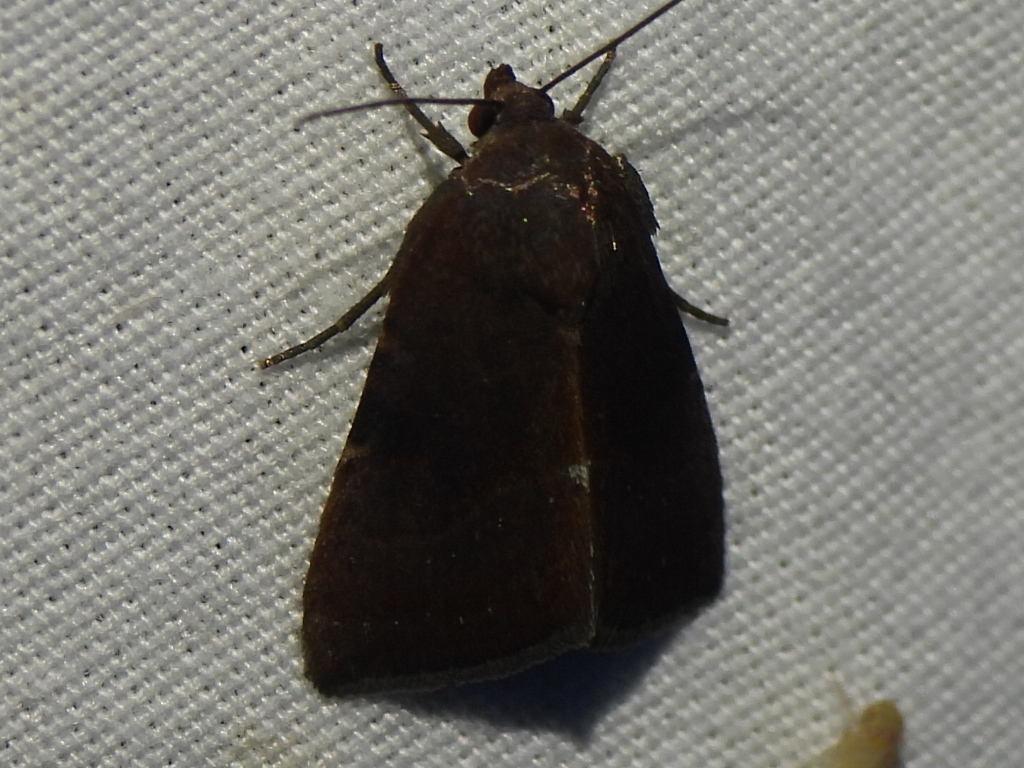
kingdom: Animalia
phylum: Arthropoda
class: Insecta
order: Lepidoptera
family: Noctuidae
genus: Galgula
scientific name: Galgula partita
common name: Wedgeling
